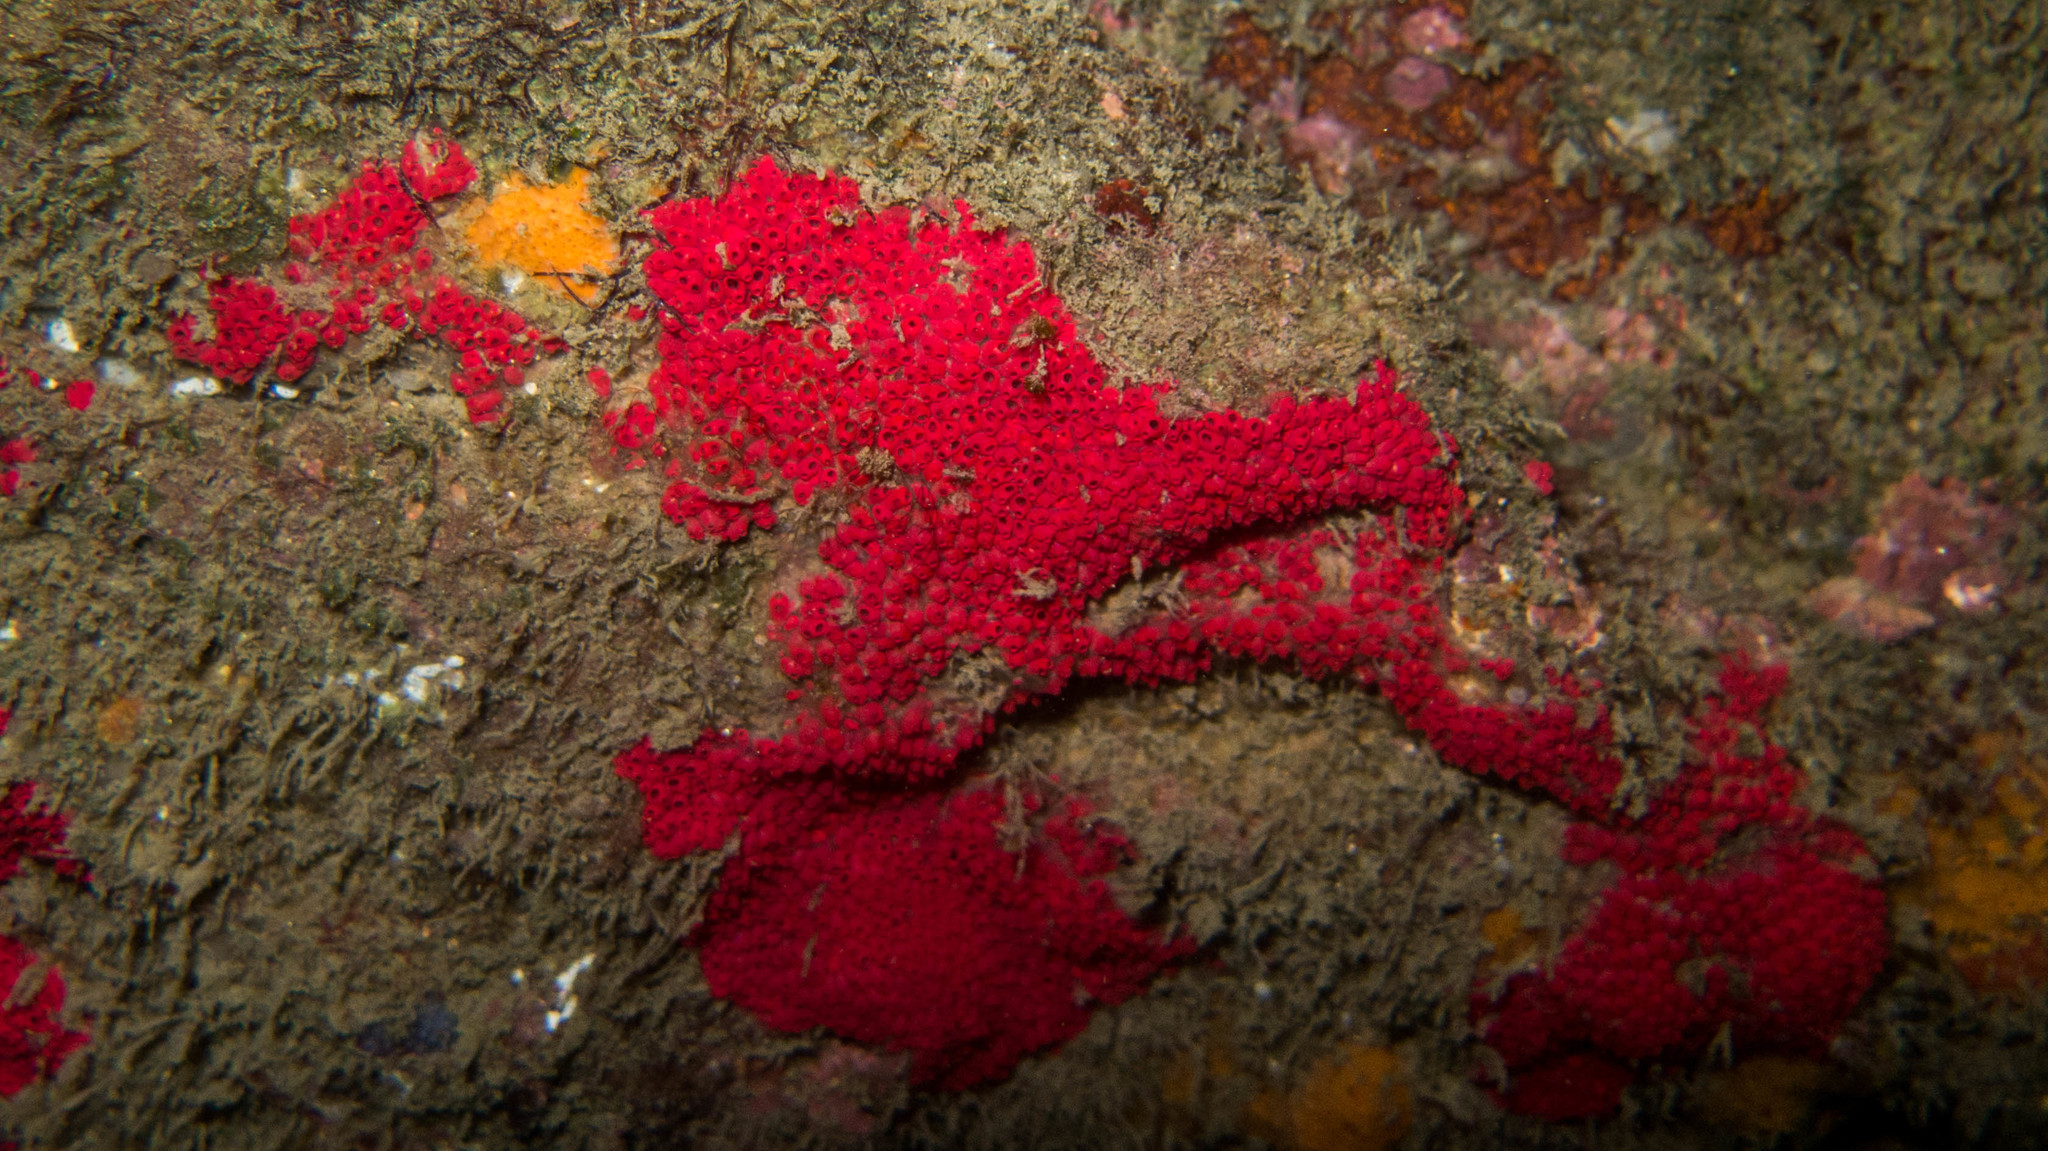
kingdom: Animalia
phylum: Chordata
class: Ascidiacea
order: Stolidobranchia
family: Styelidae
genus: Symplegma
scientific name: Symplegma rubra
